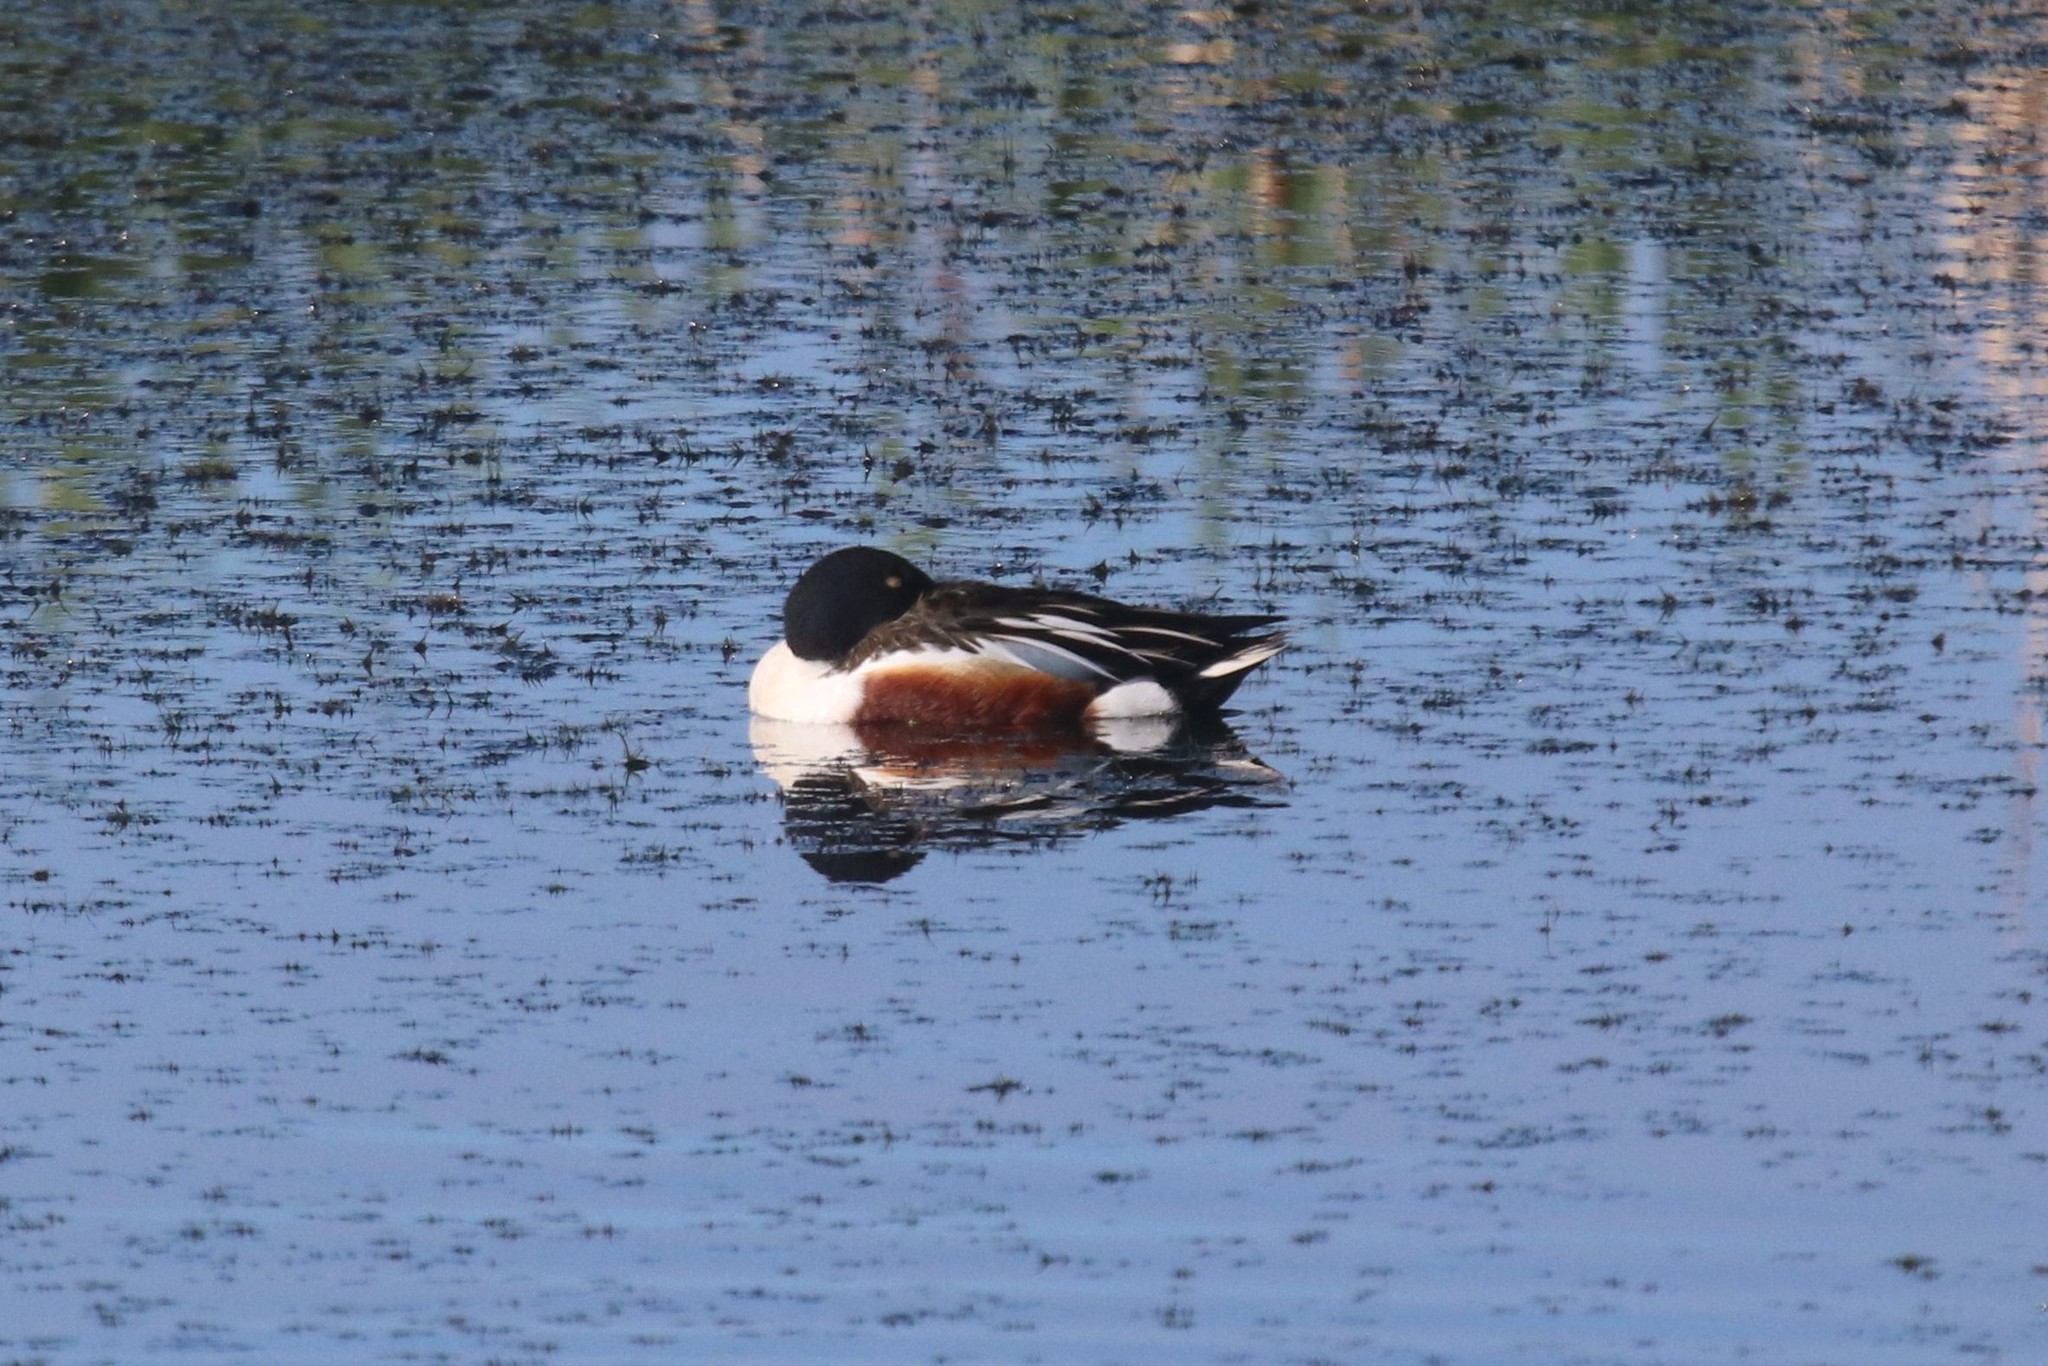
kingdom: Animalia
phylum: Chordata
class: Aves
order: Anseriformes
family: Anatidae
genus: Spatula
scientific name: Spatula clypeata
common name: Northern shoveler
